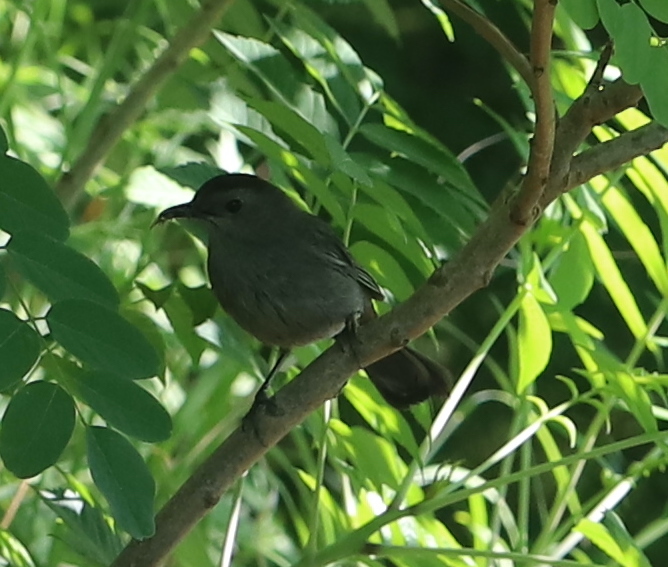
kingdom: Animalia
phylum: Chordata
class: Aves
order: Passeriformes
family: Mimidae
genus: Dumetella
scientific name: Dumetella carolinensis
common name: Gray catbird
